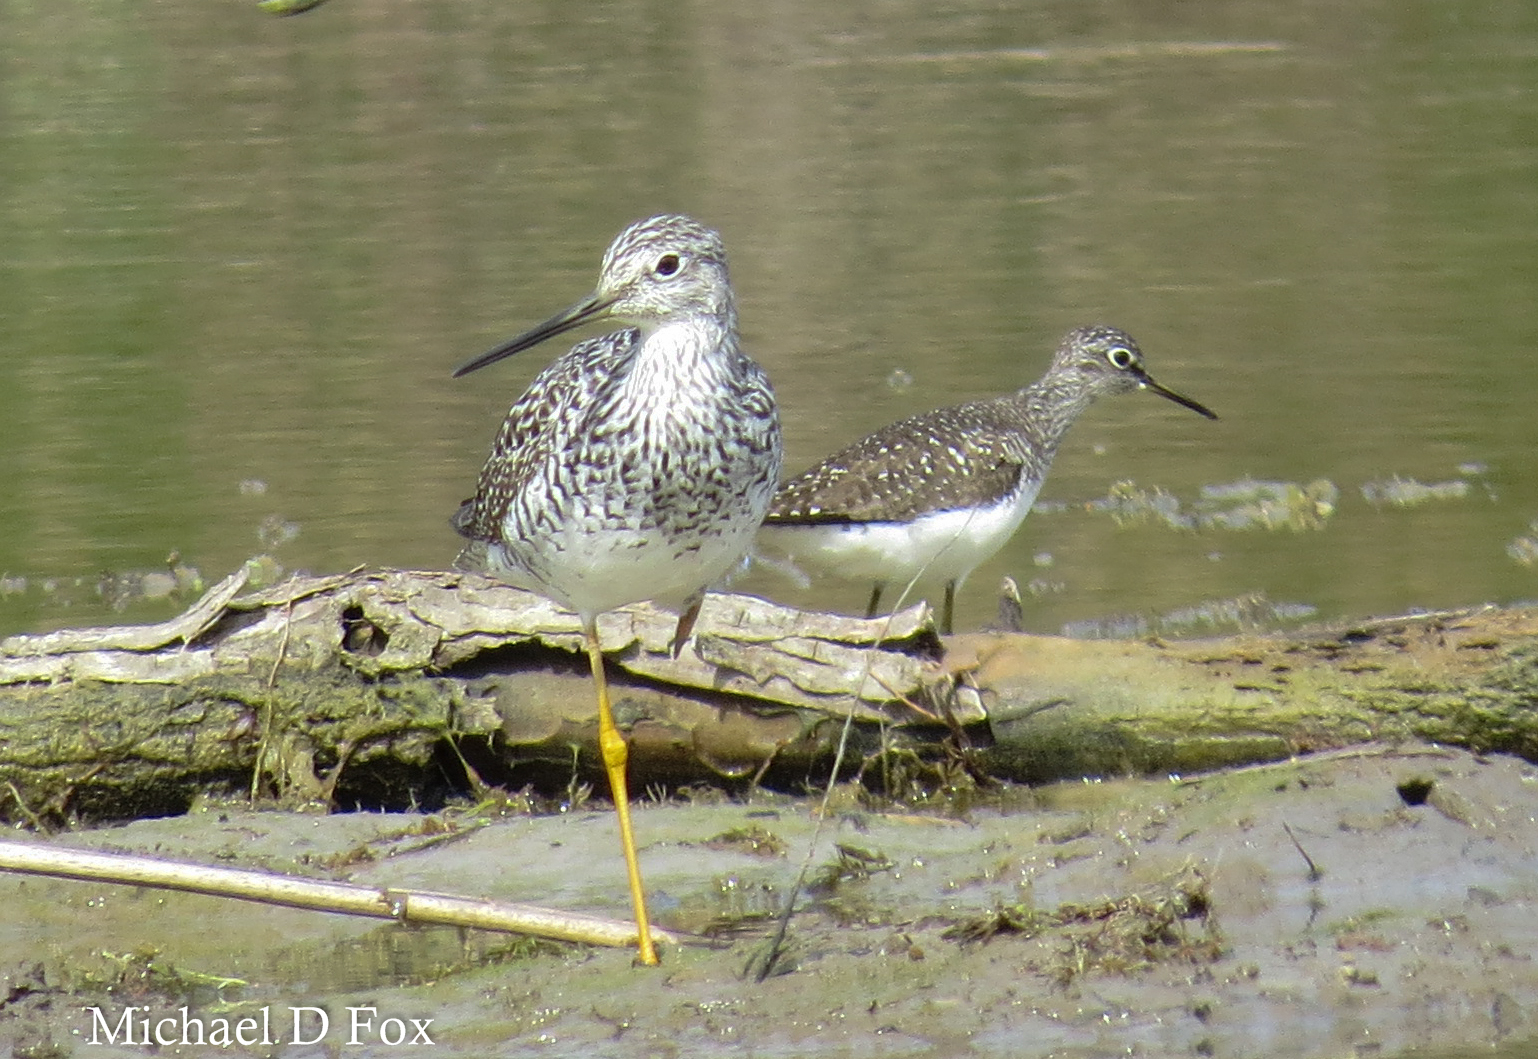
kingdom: Animalia
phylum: Chordata
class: Aves
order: Charadriiformes
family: Scolopacidae
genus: Tringa
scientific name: Tringa melanoleuca
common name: Greater yellowlegs
